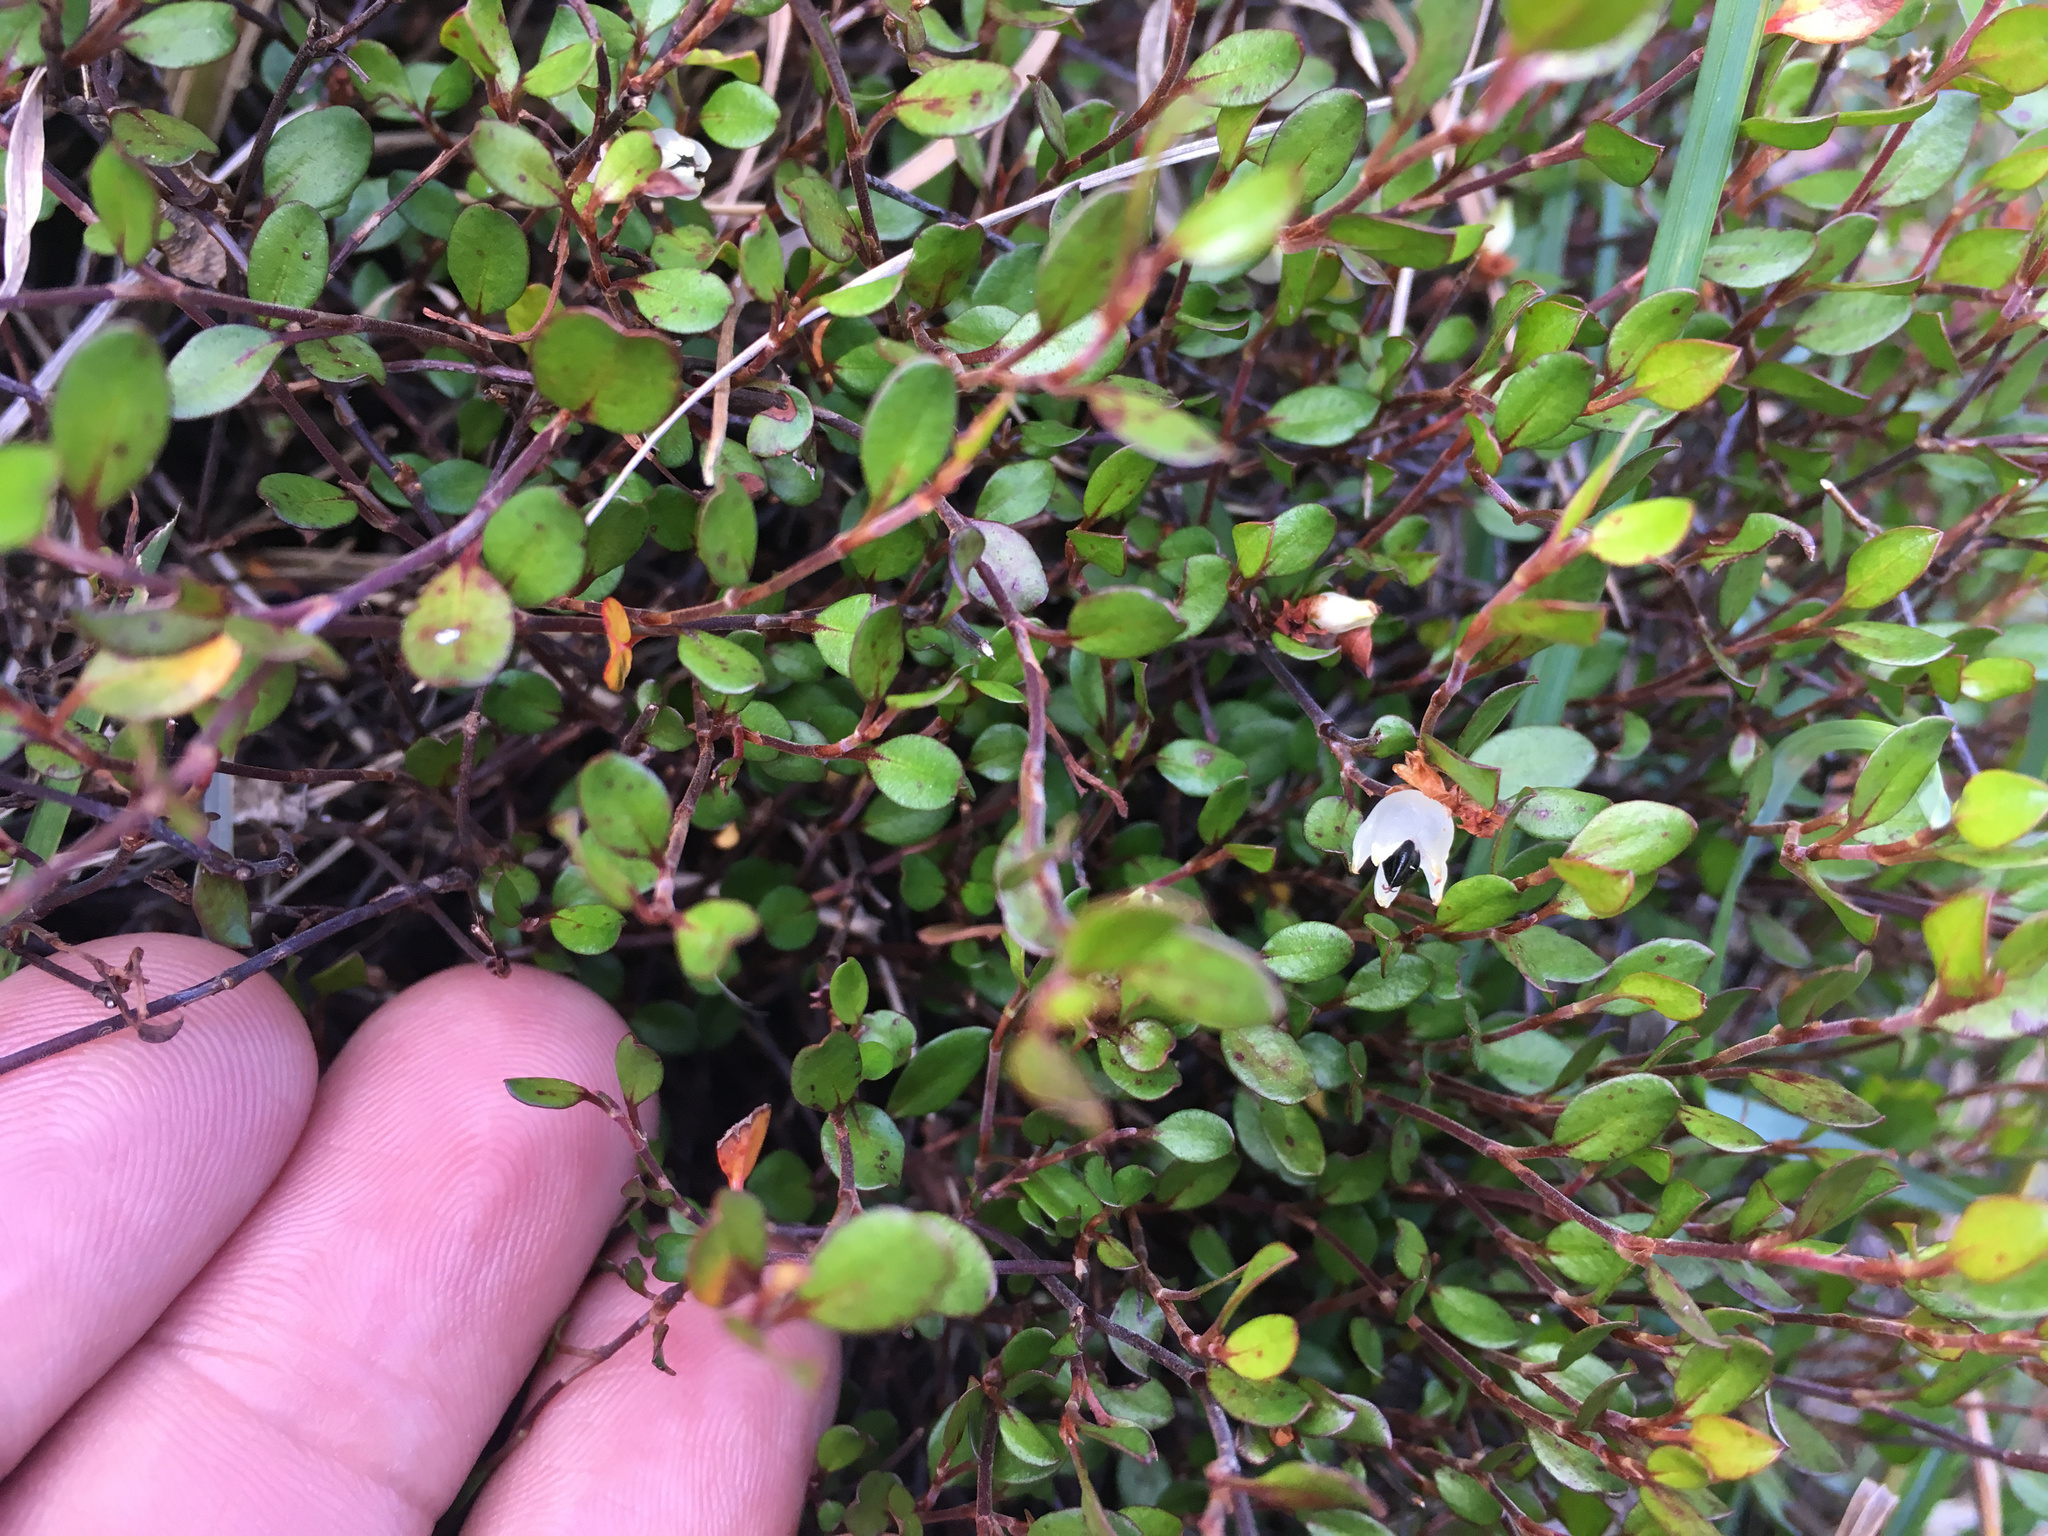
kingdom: Plantae
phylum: Tracheophyta
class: Magnoliopsida
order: Caryophyllales
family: Polygonaceae
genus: Muehlenbeckia
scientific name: Muehlenbeckia axillaris
